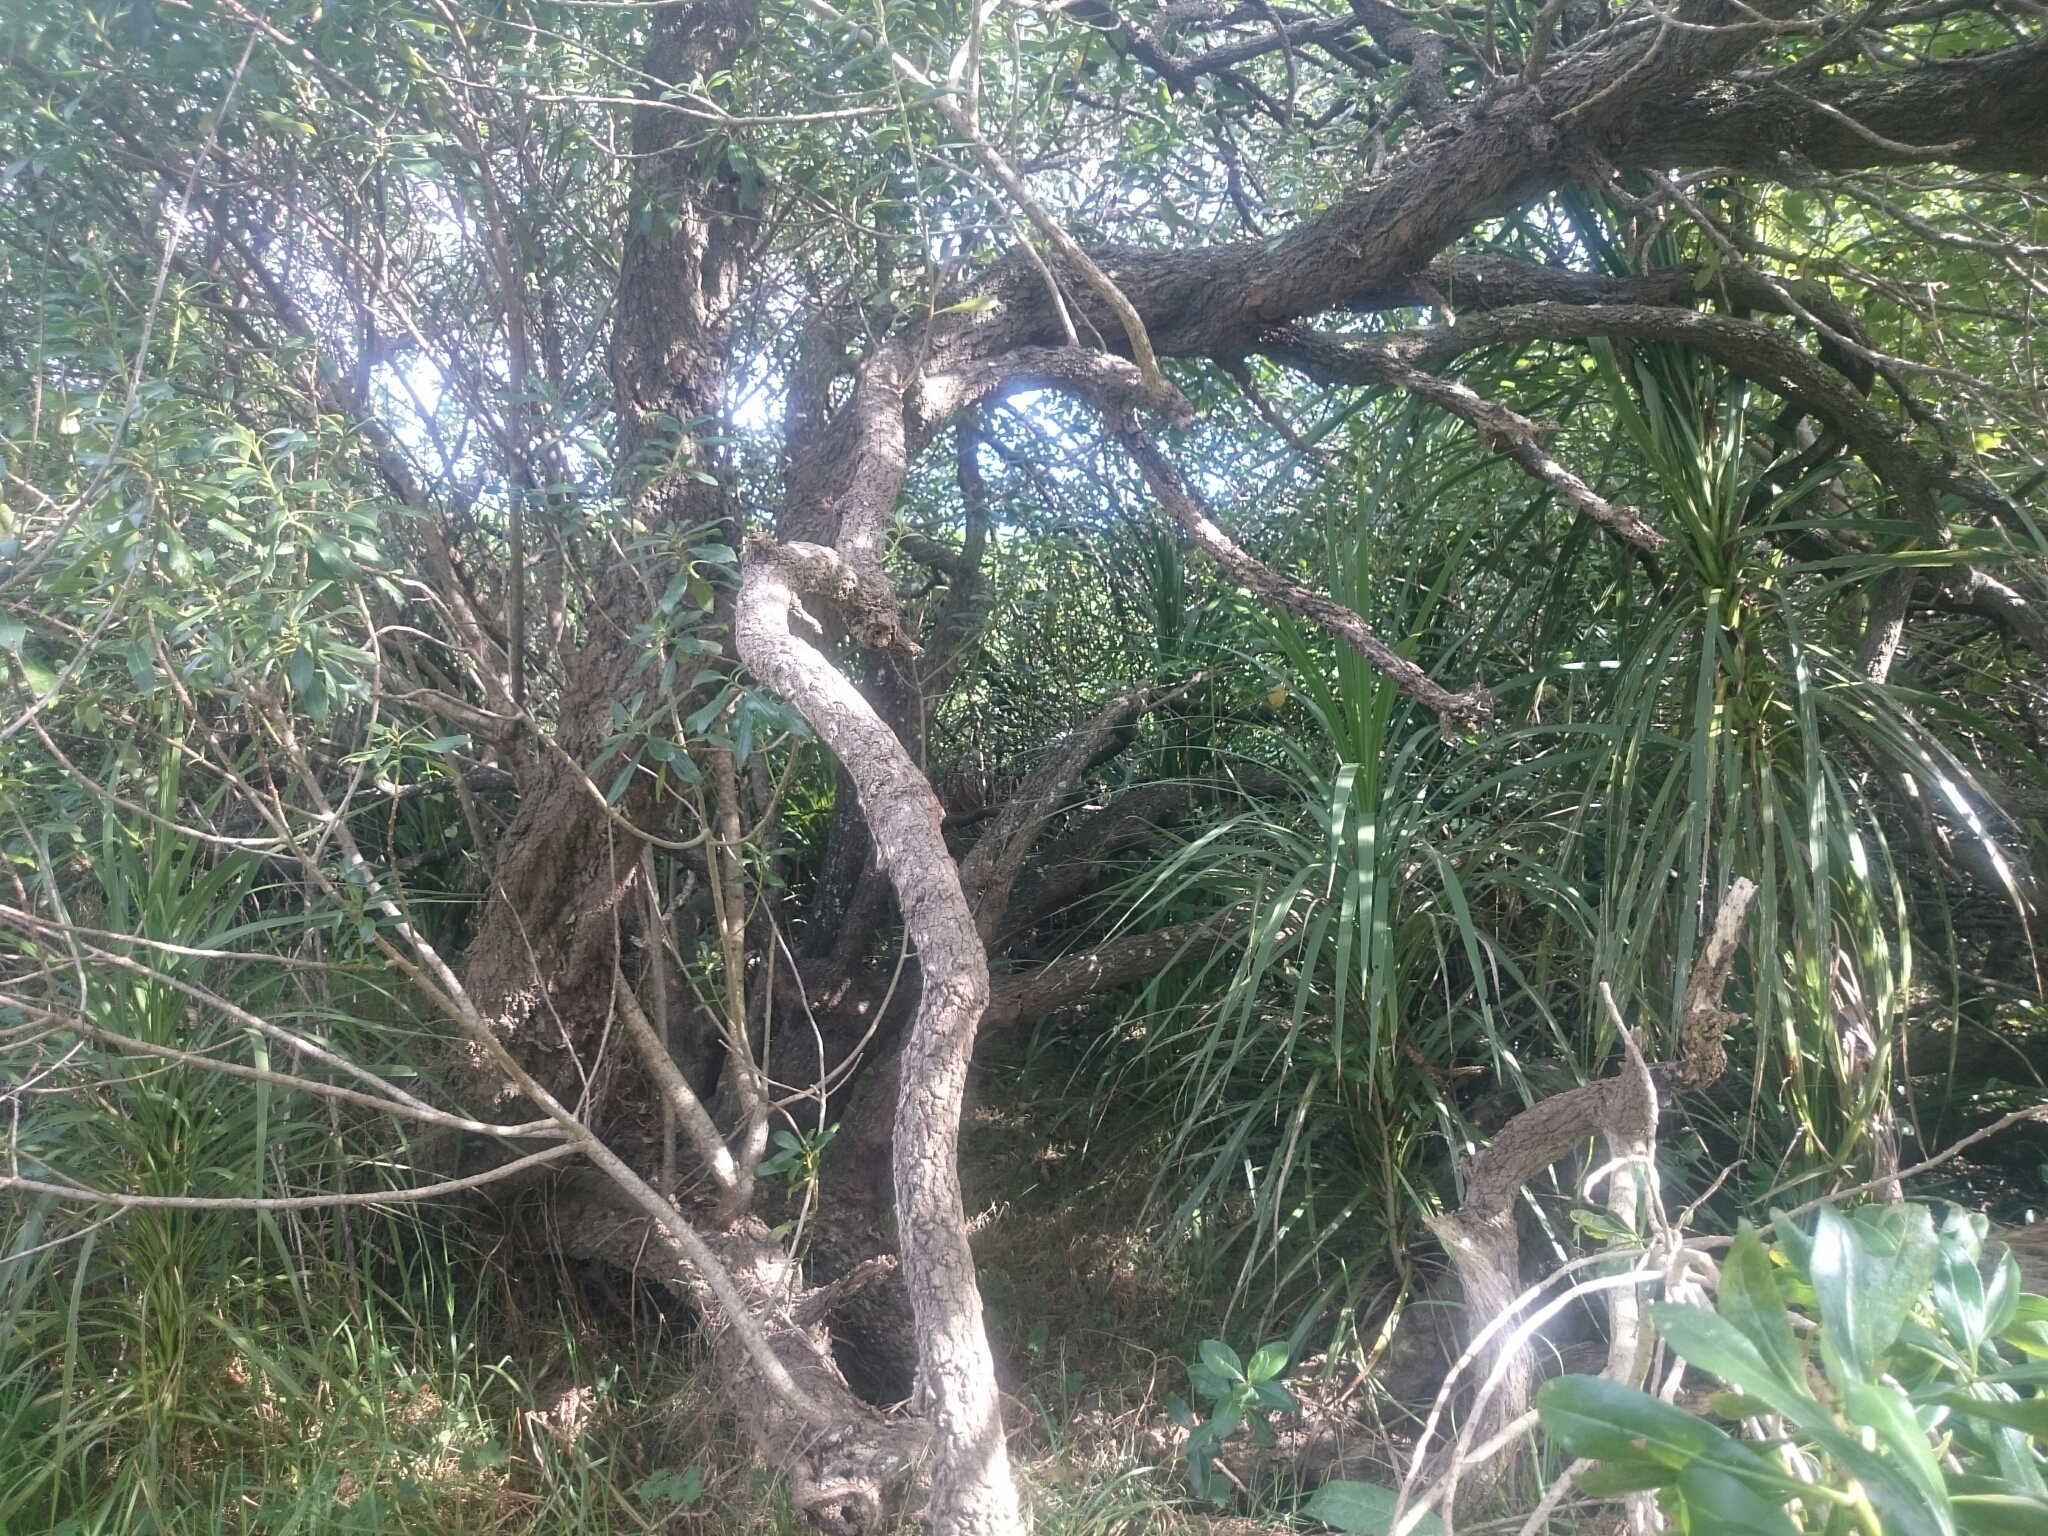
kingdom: Animalia
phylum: Chordata
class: Aves
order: Passeriformes
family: Zosteropidae
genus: Zosterops
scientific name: Zosterops lateralis
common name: Silvereye
